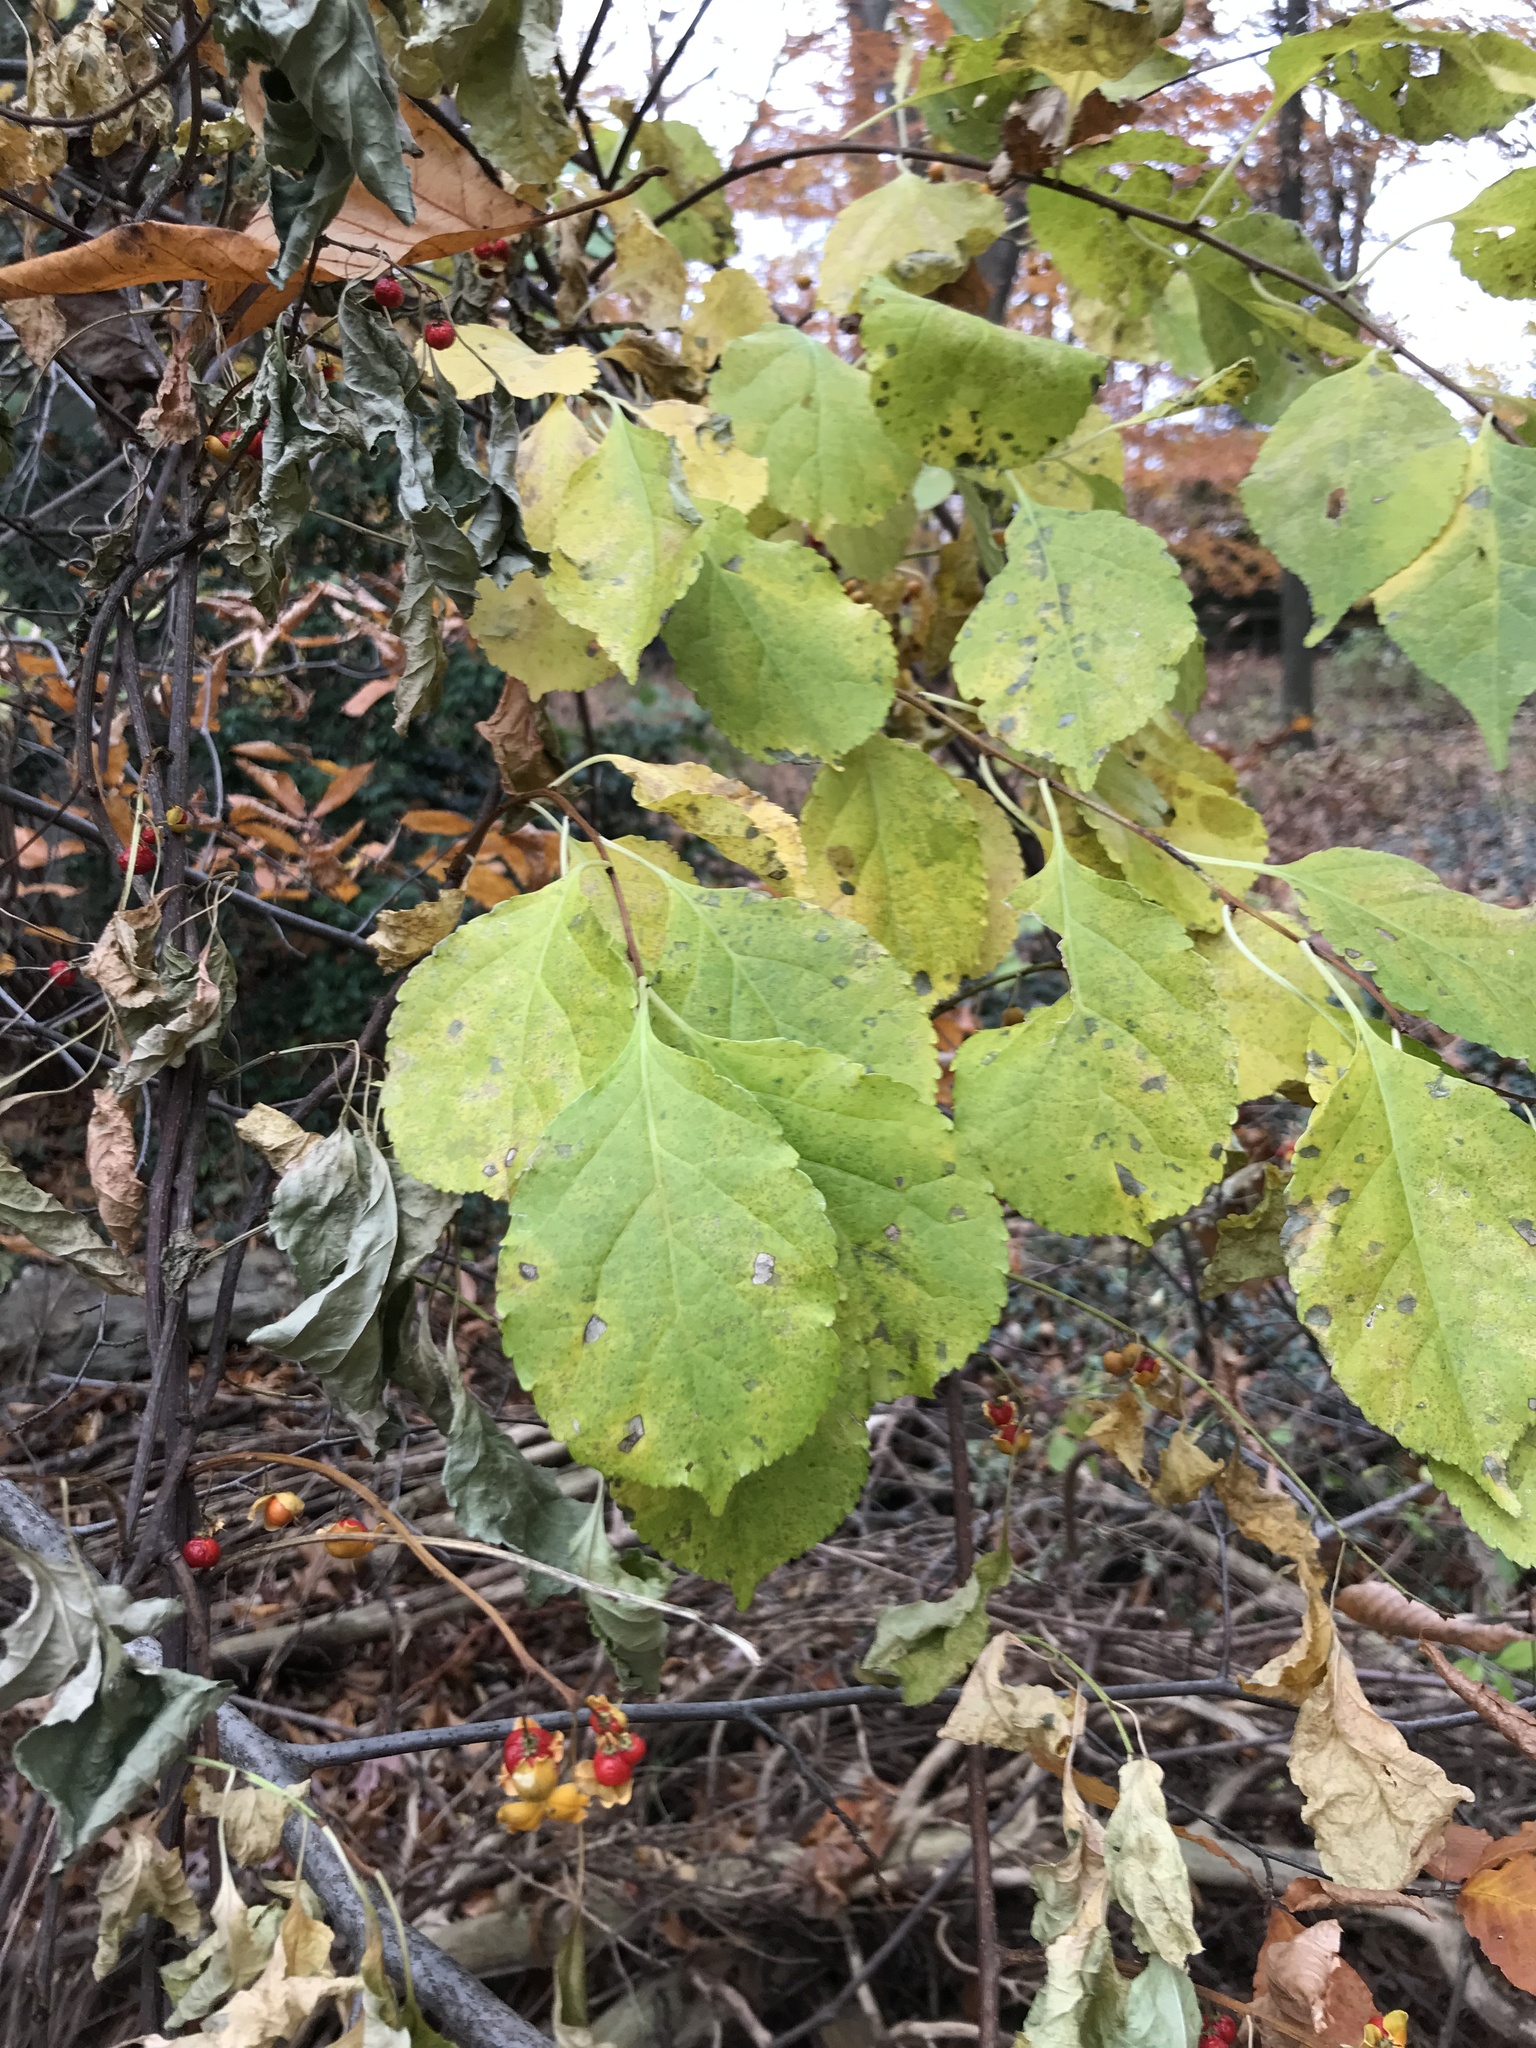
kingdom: Plantae
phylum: Tracheophyta
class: Magnoliopsida
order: Celastrales
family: Celastraceae
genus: Celastrus
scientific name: Celastrus orbiculatus
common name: Oriental bittersweet
